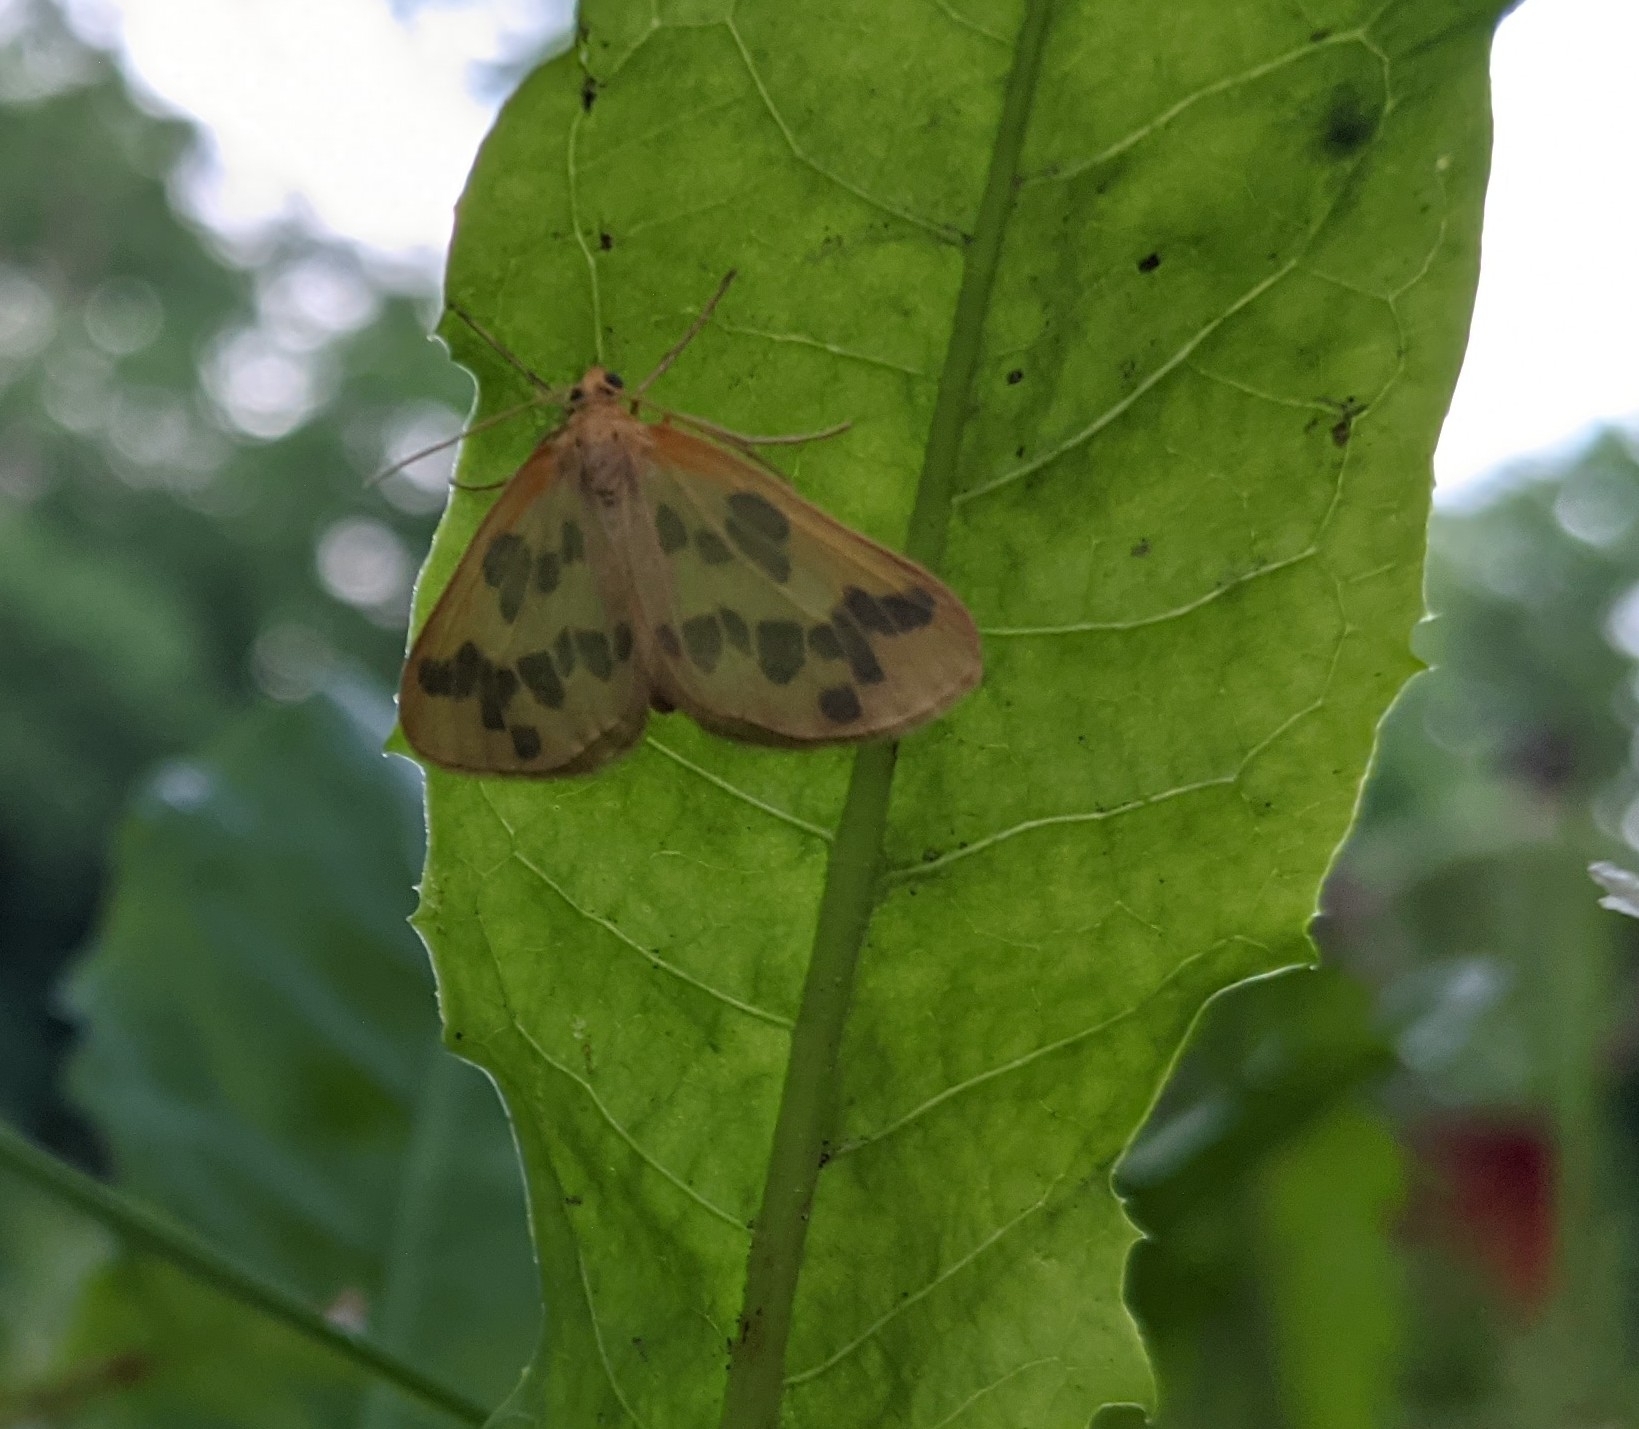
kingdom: Animalia
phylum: Arthropoda
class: Insecta
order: Lepidoptera
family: Geometridae
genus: Eubaphe
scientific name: Eubaphe mendica
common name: Beggar
